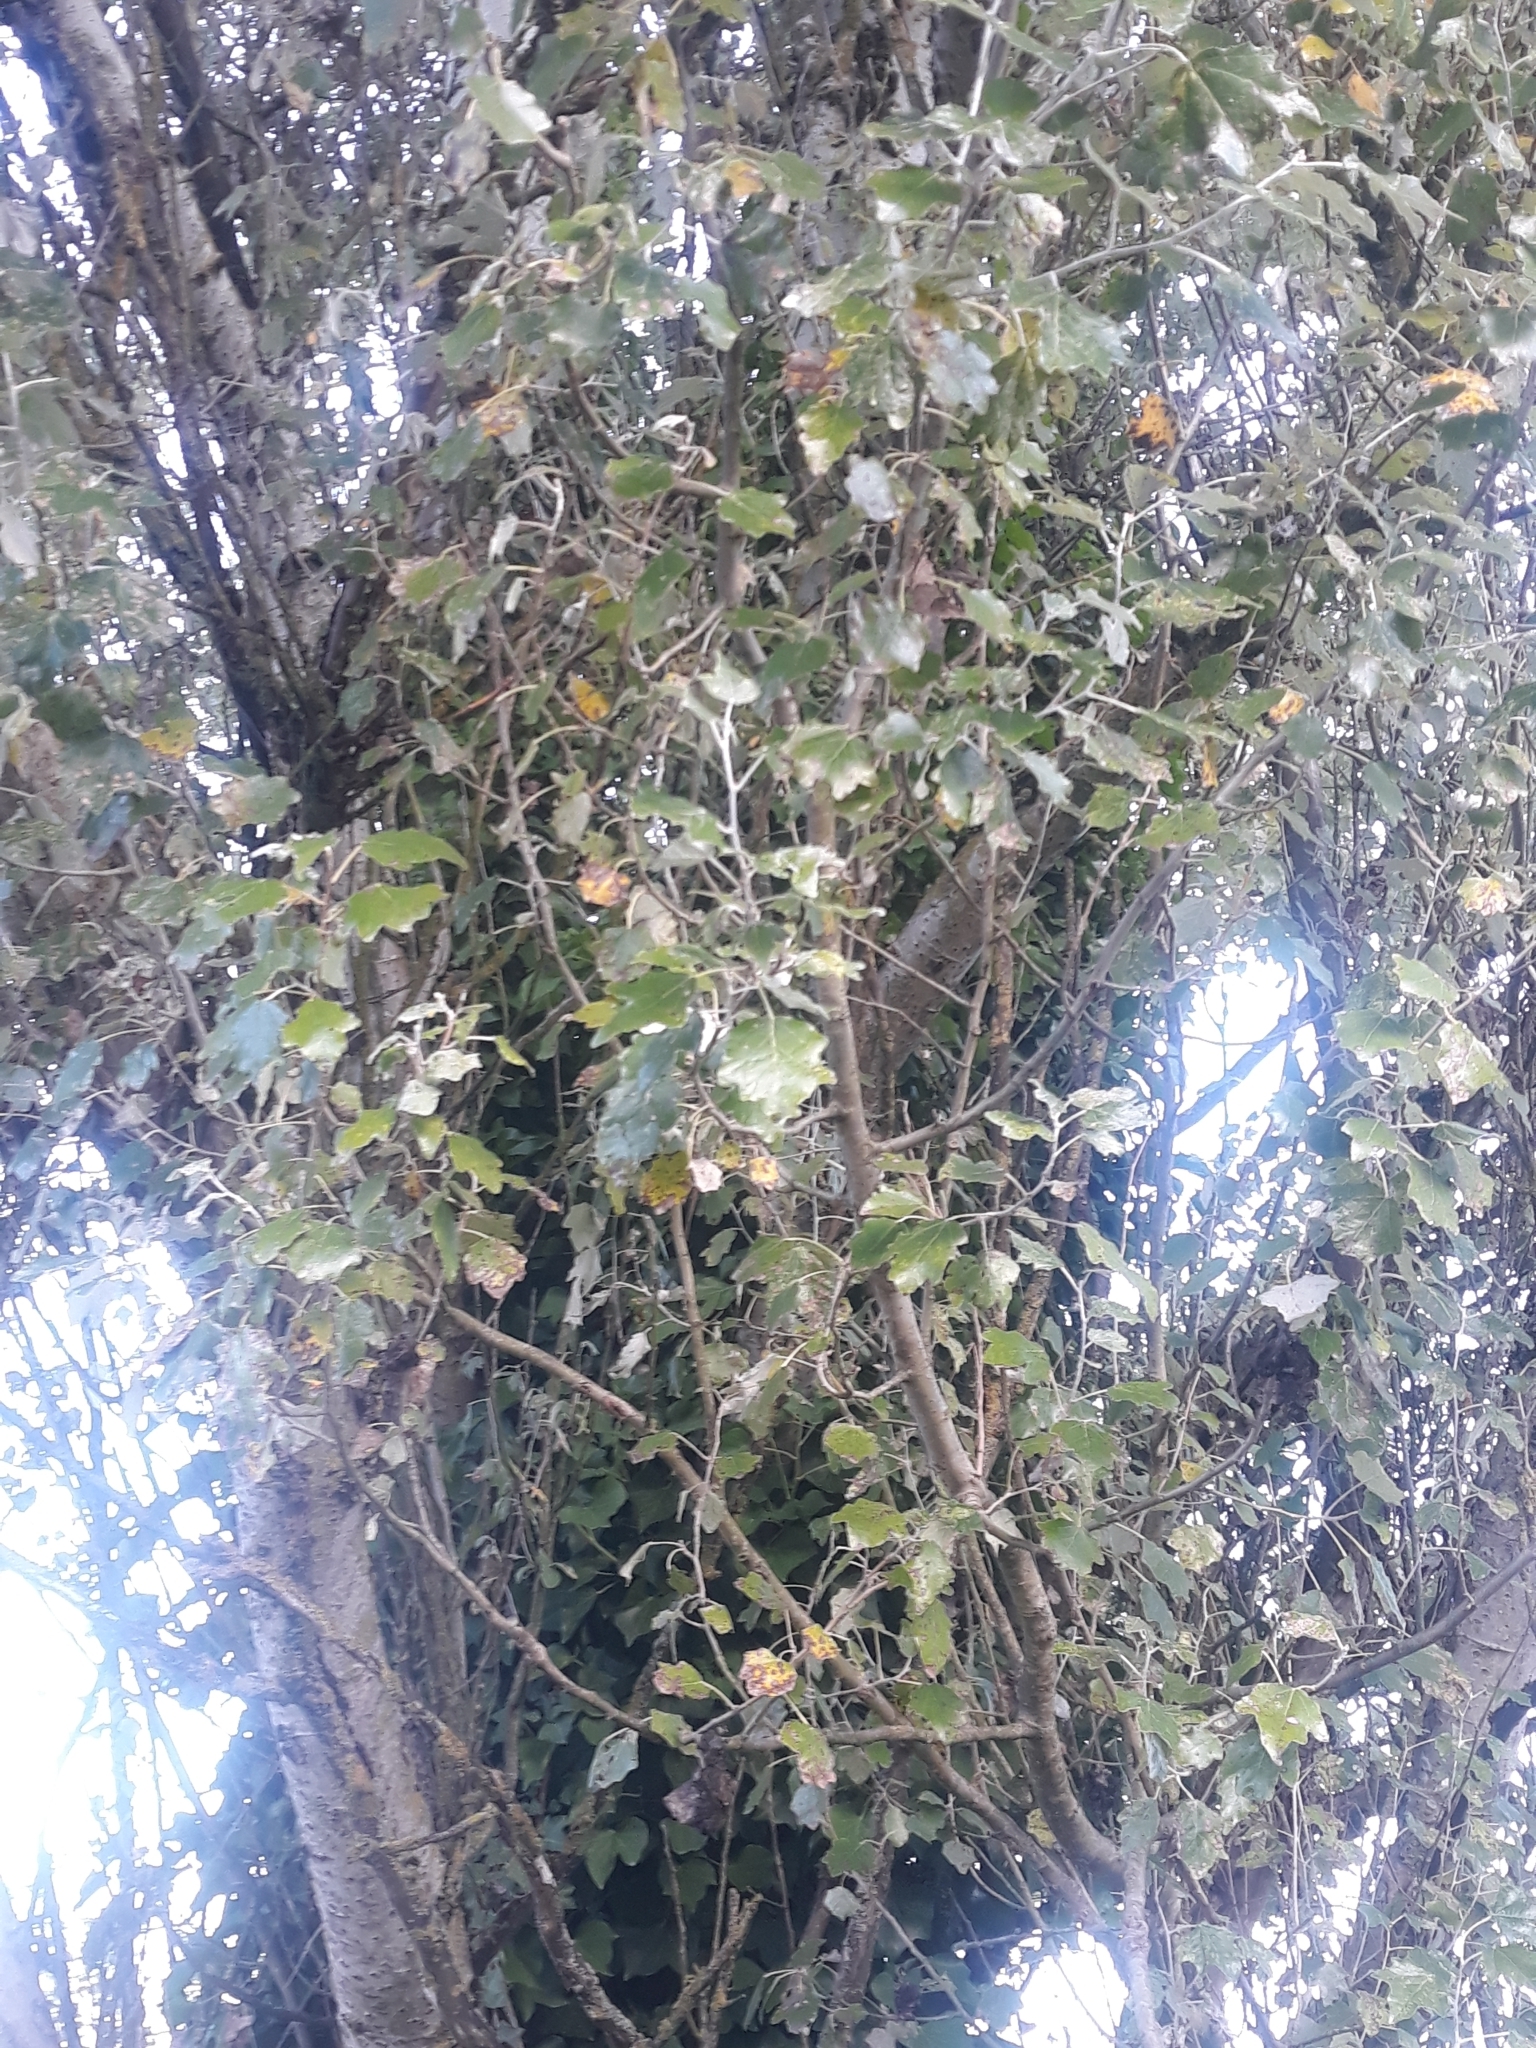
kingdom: Plantae
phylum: Tracheophyta
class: Magnoliopsida
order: Malpighiales
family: Salicaceae
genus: Populus
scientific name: Populus alba
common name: White poplar
